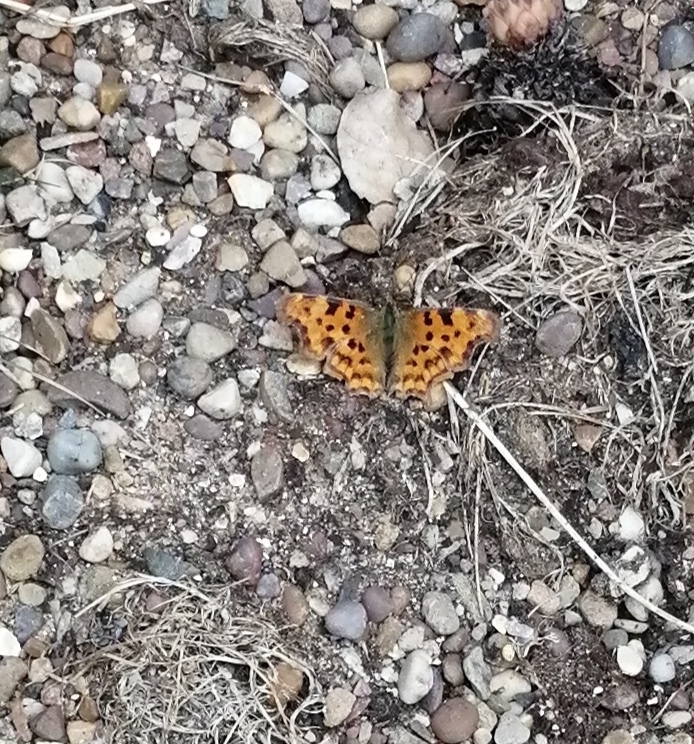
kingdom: Animalia
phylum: Arthropoda
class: Insecta
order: Lepidoptera
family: Nymphalidae
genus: Polygonia
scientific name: Polygonia c-album
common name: Comma
